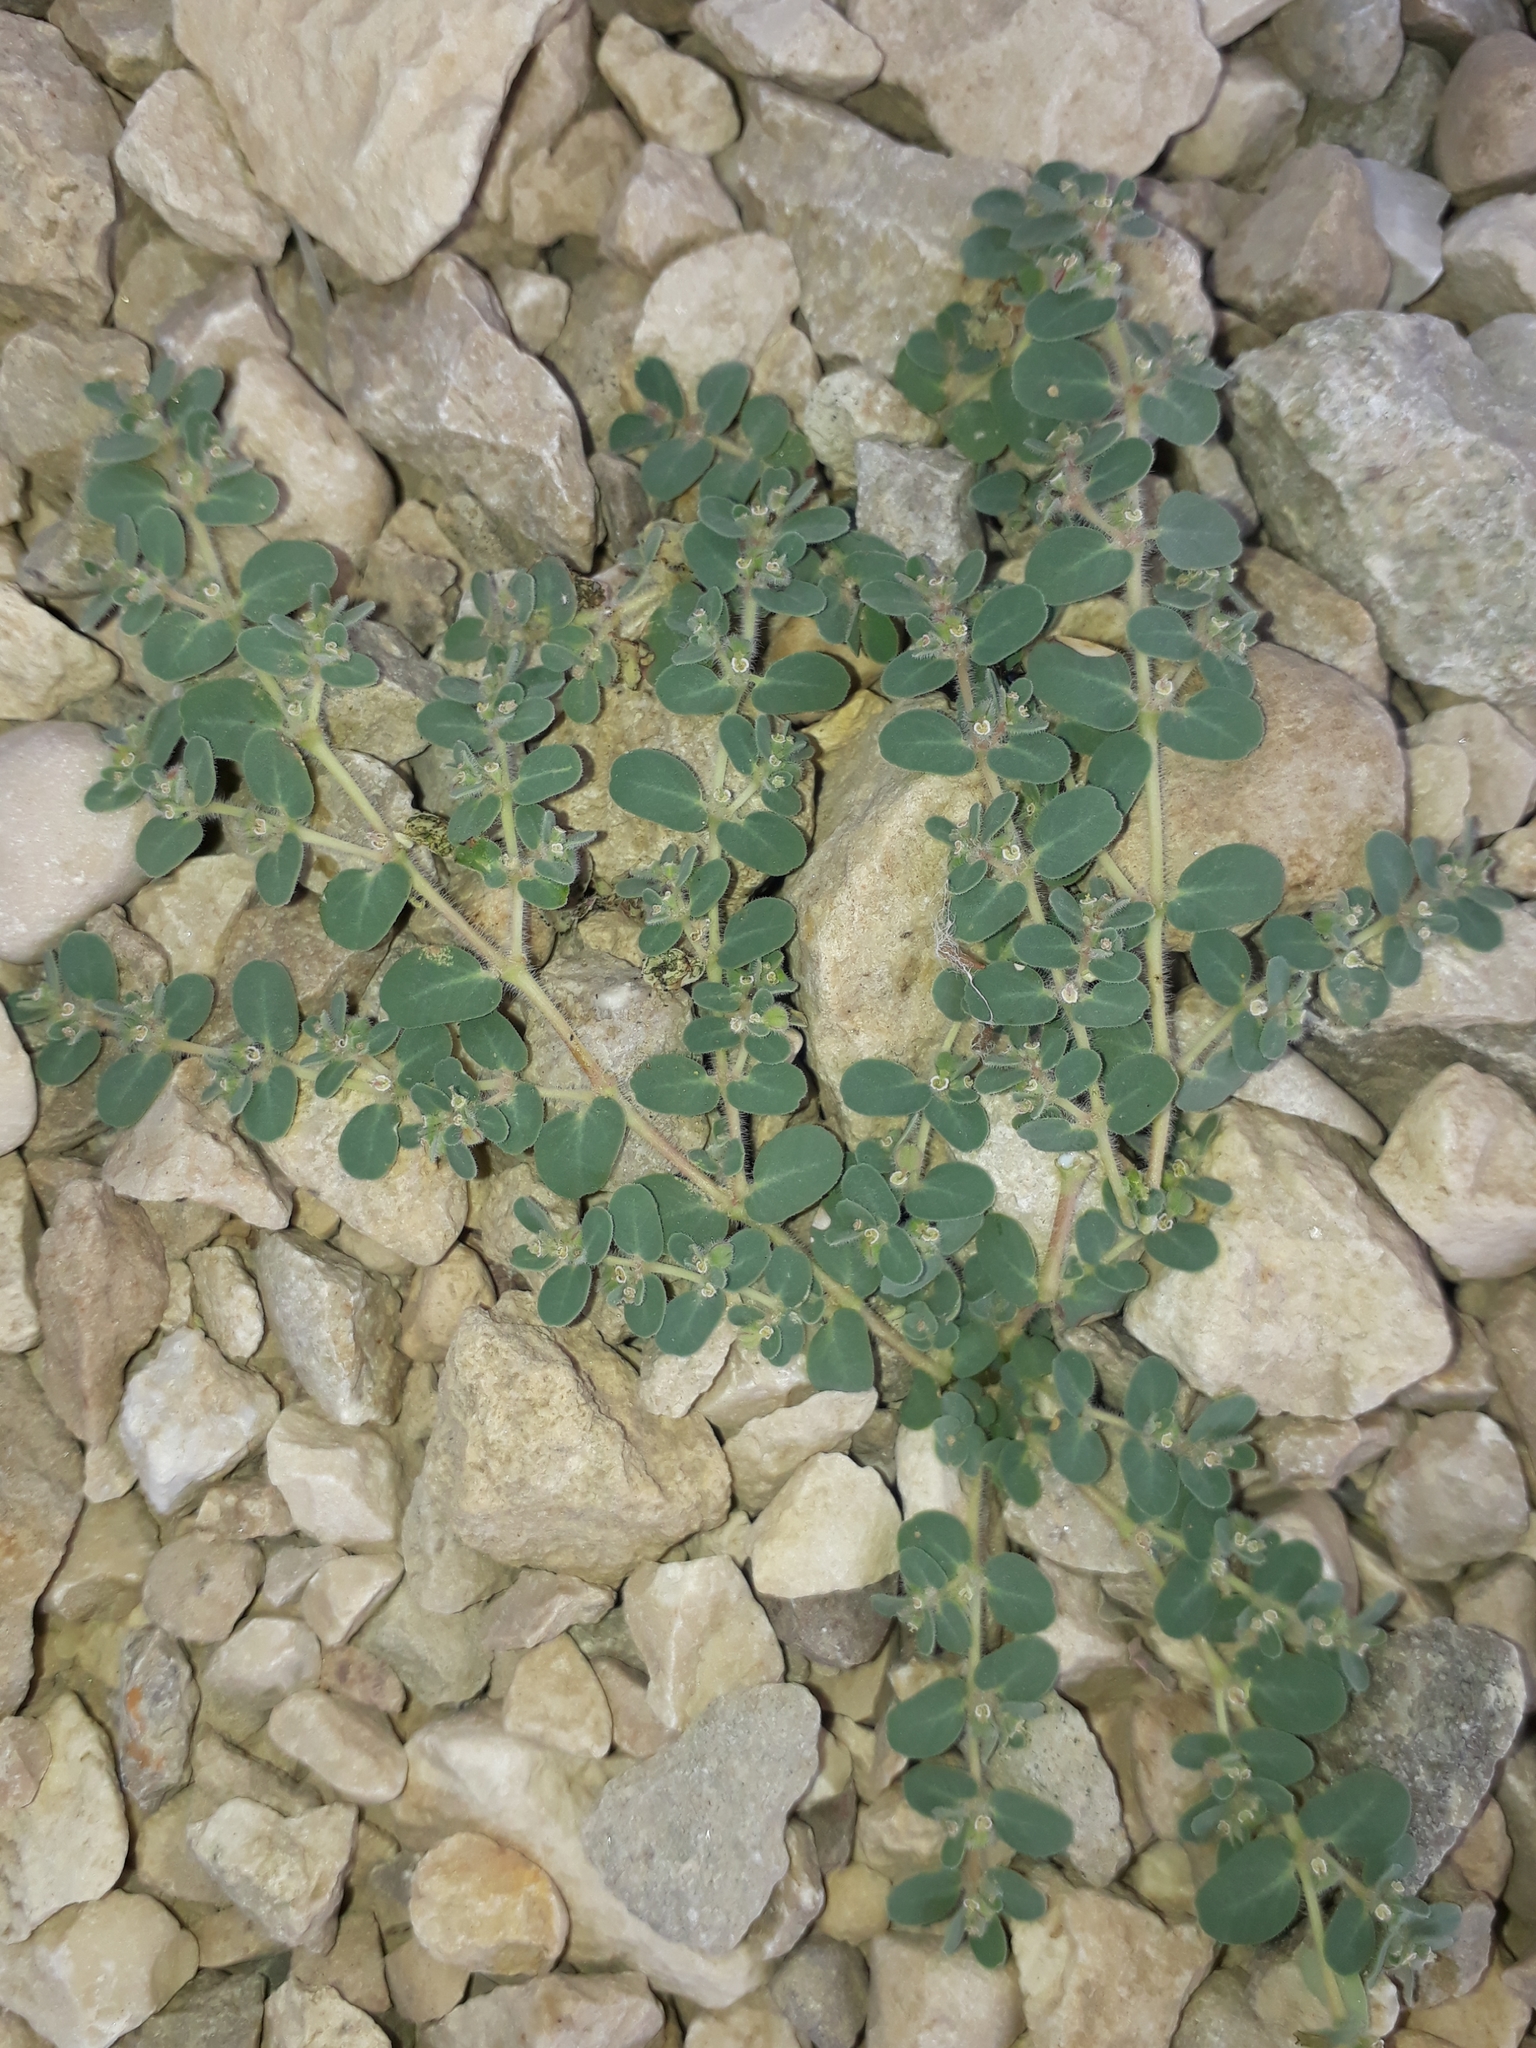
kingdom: Plantae
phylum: Tracheophyta
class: Magnoliopsida
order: Malpighiales
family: Euphorbiaceae
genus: Euphorbia
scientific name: Euphorbia granulata
